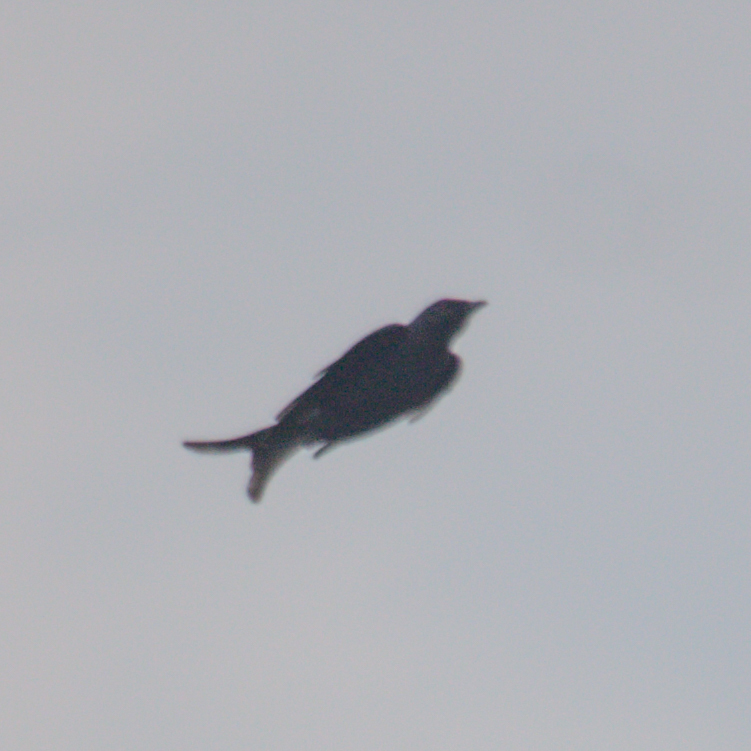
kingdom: Animalia
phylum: Chordata
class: Aves
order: Passeriformes
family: Dicruridae
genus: Dicrurus
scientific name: Dicrurus leucophaeus
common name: Ashy drongo
